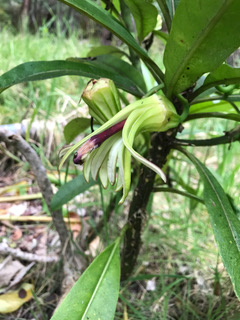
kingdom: Plantae
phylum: Tracheophyta
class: Magnoliopsida
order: Asterales
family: Campanulaceae
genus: Clermontia
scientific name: Clermontia hawaiiensis
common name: Hawaii clermontia
